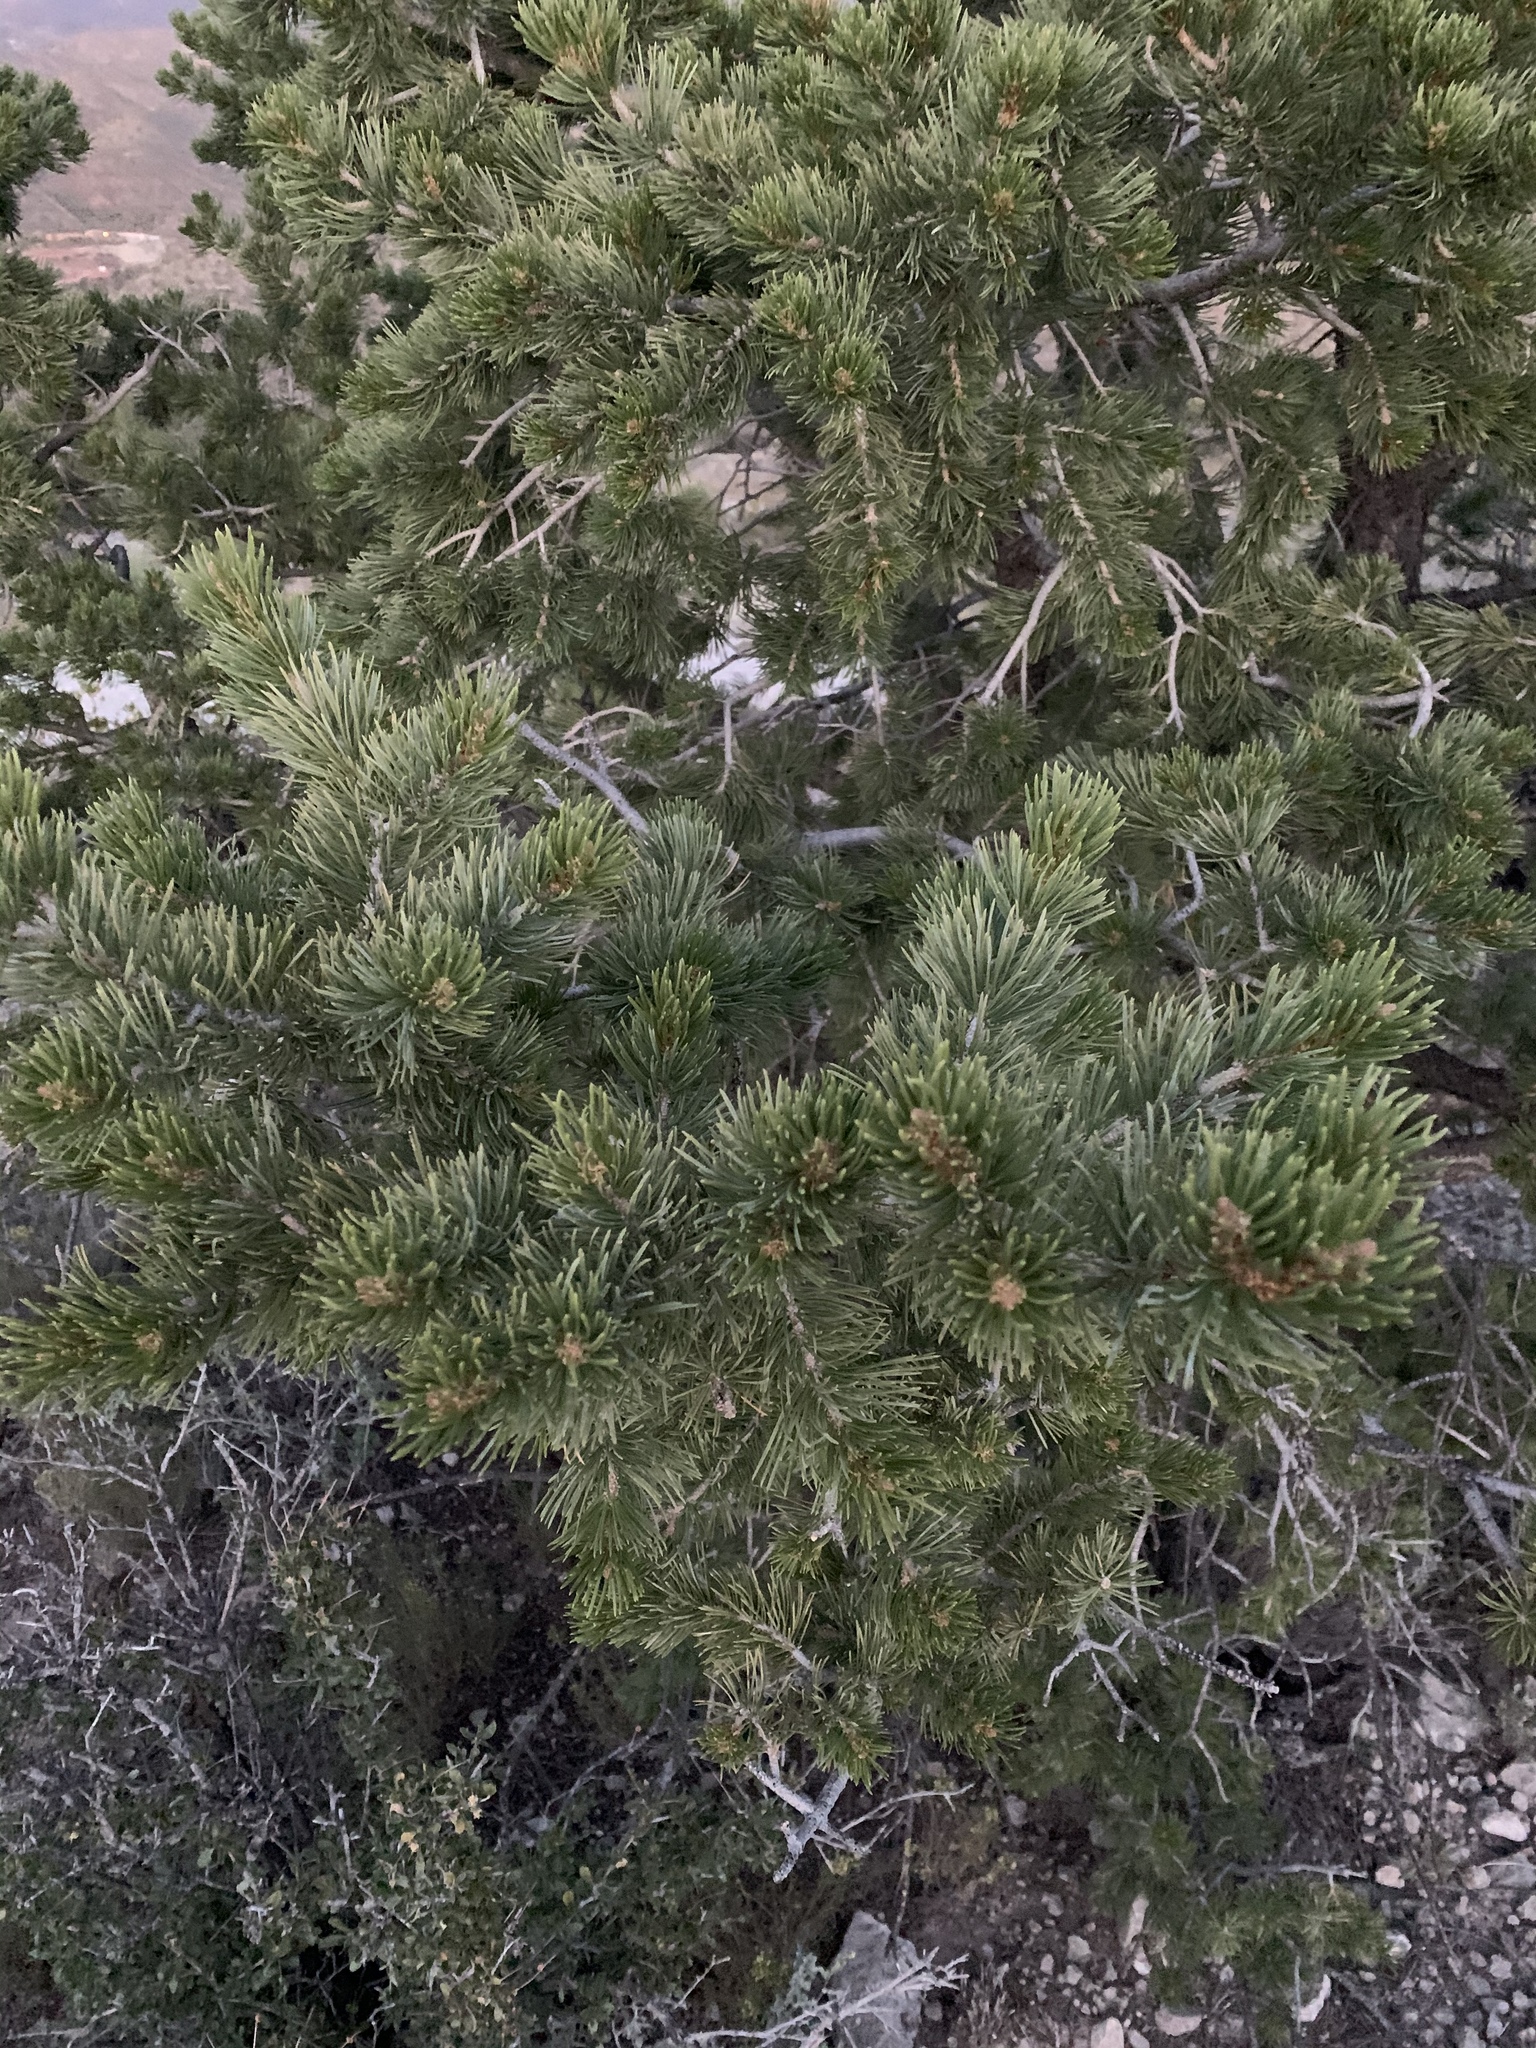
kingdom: Plantae
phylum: Tracheophyta
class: Pinopsida
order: Pinales
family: Pinaceae
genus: Pinus
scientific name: Pinus edulis
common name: Colorado pinyon
